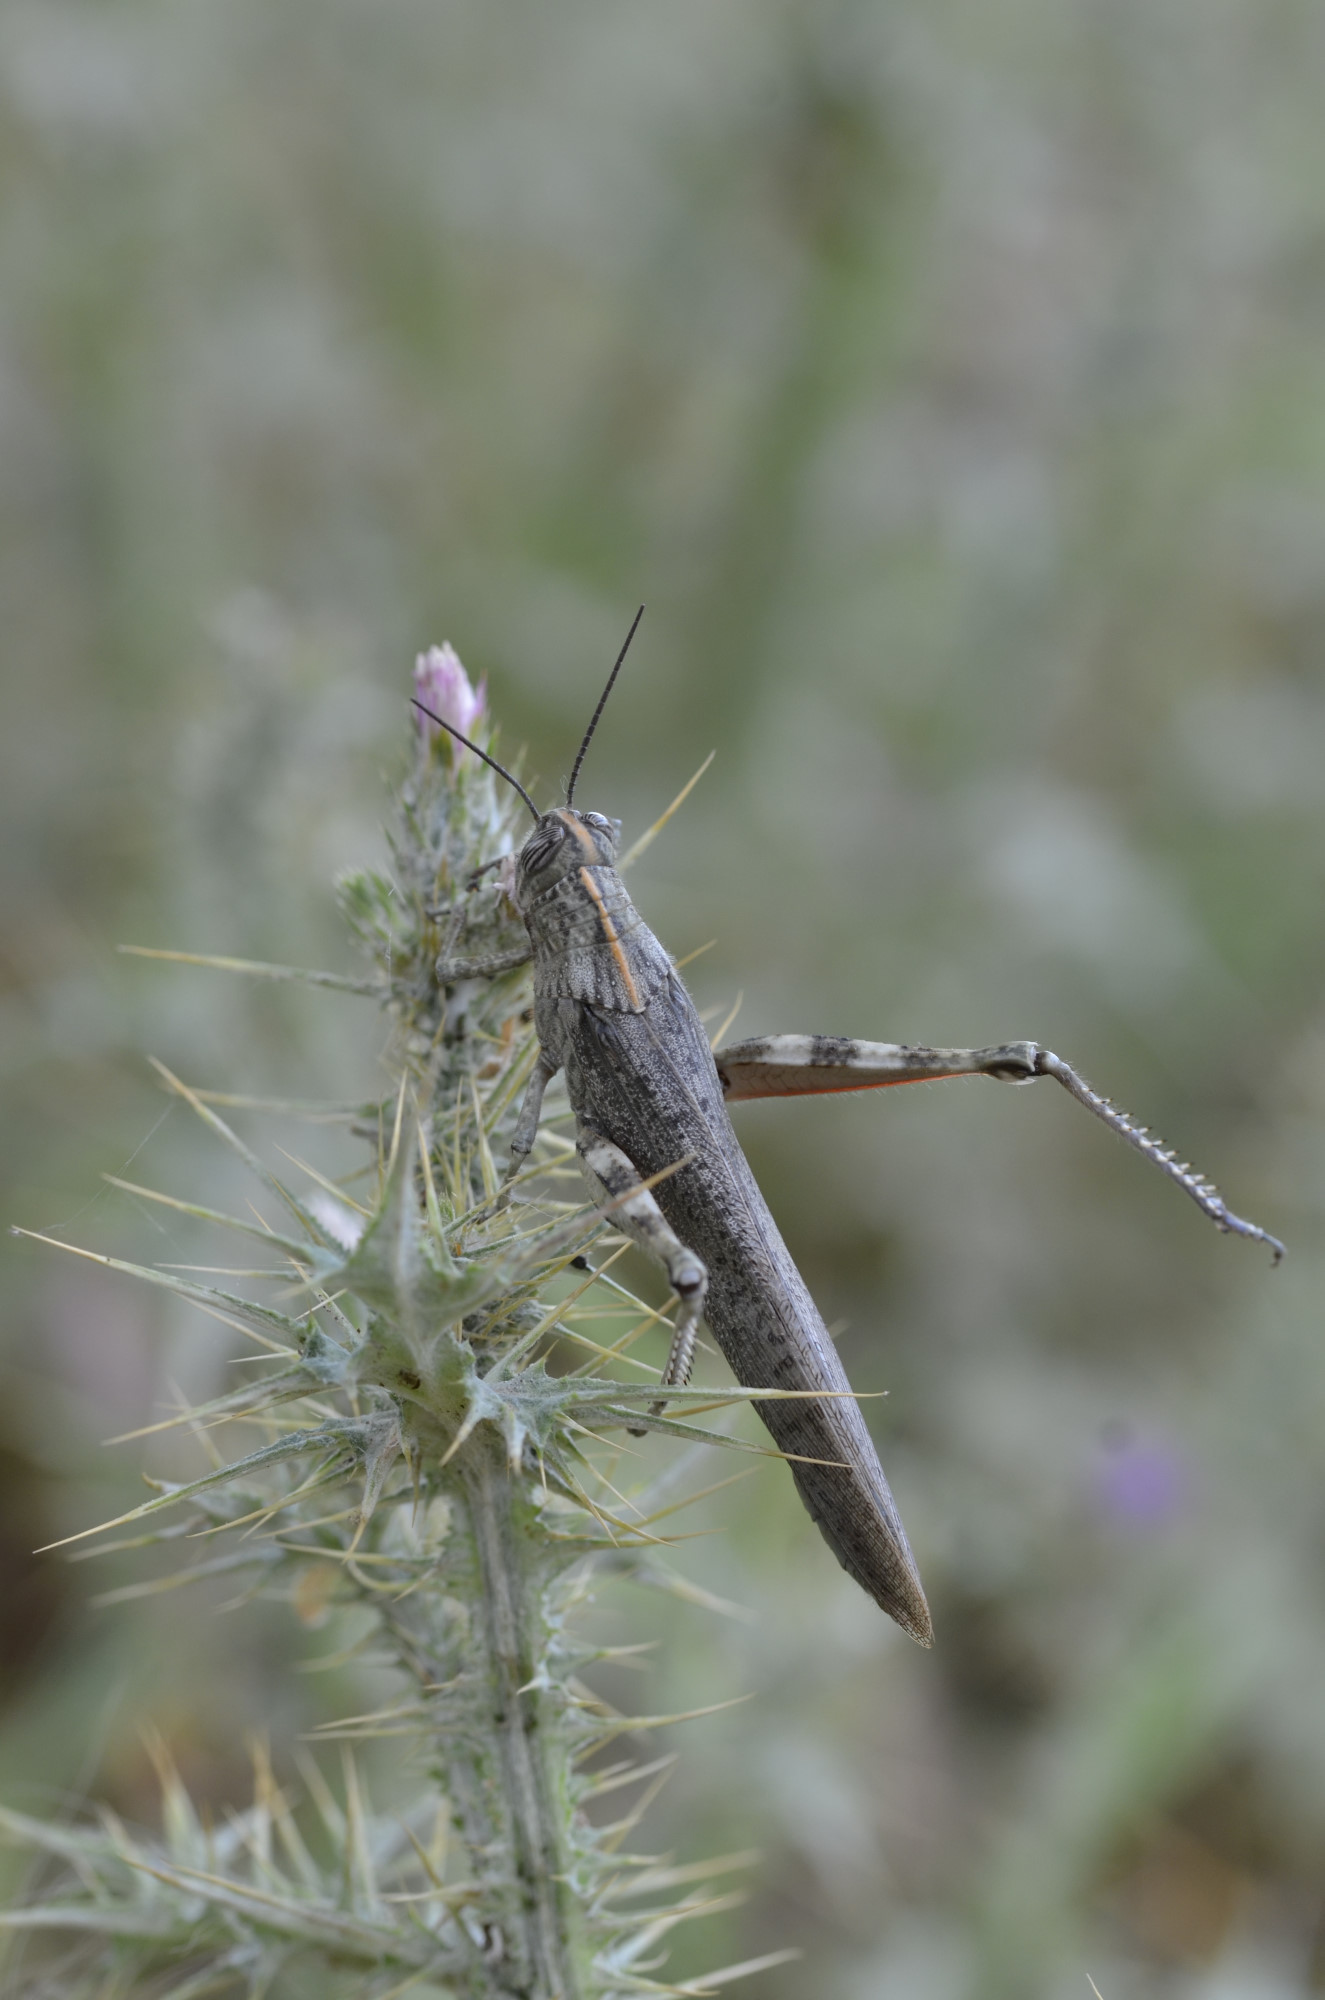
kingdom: Animalia
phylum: Arthropoda
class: Insecta
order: Orthoptera
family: Acrididae
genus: Anacridium
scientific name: Anacridium aegyptium
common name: Egyptian grasshopper
